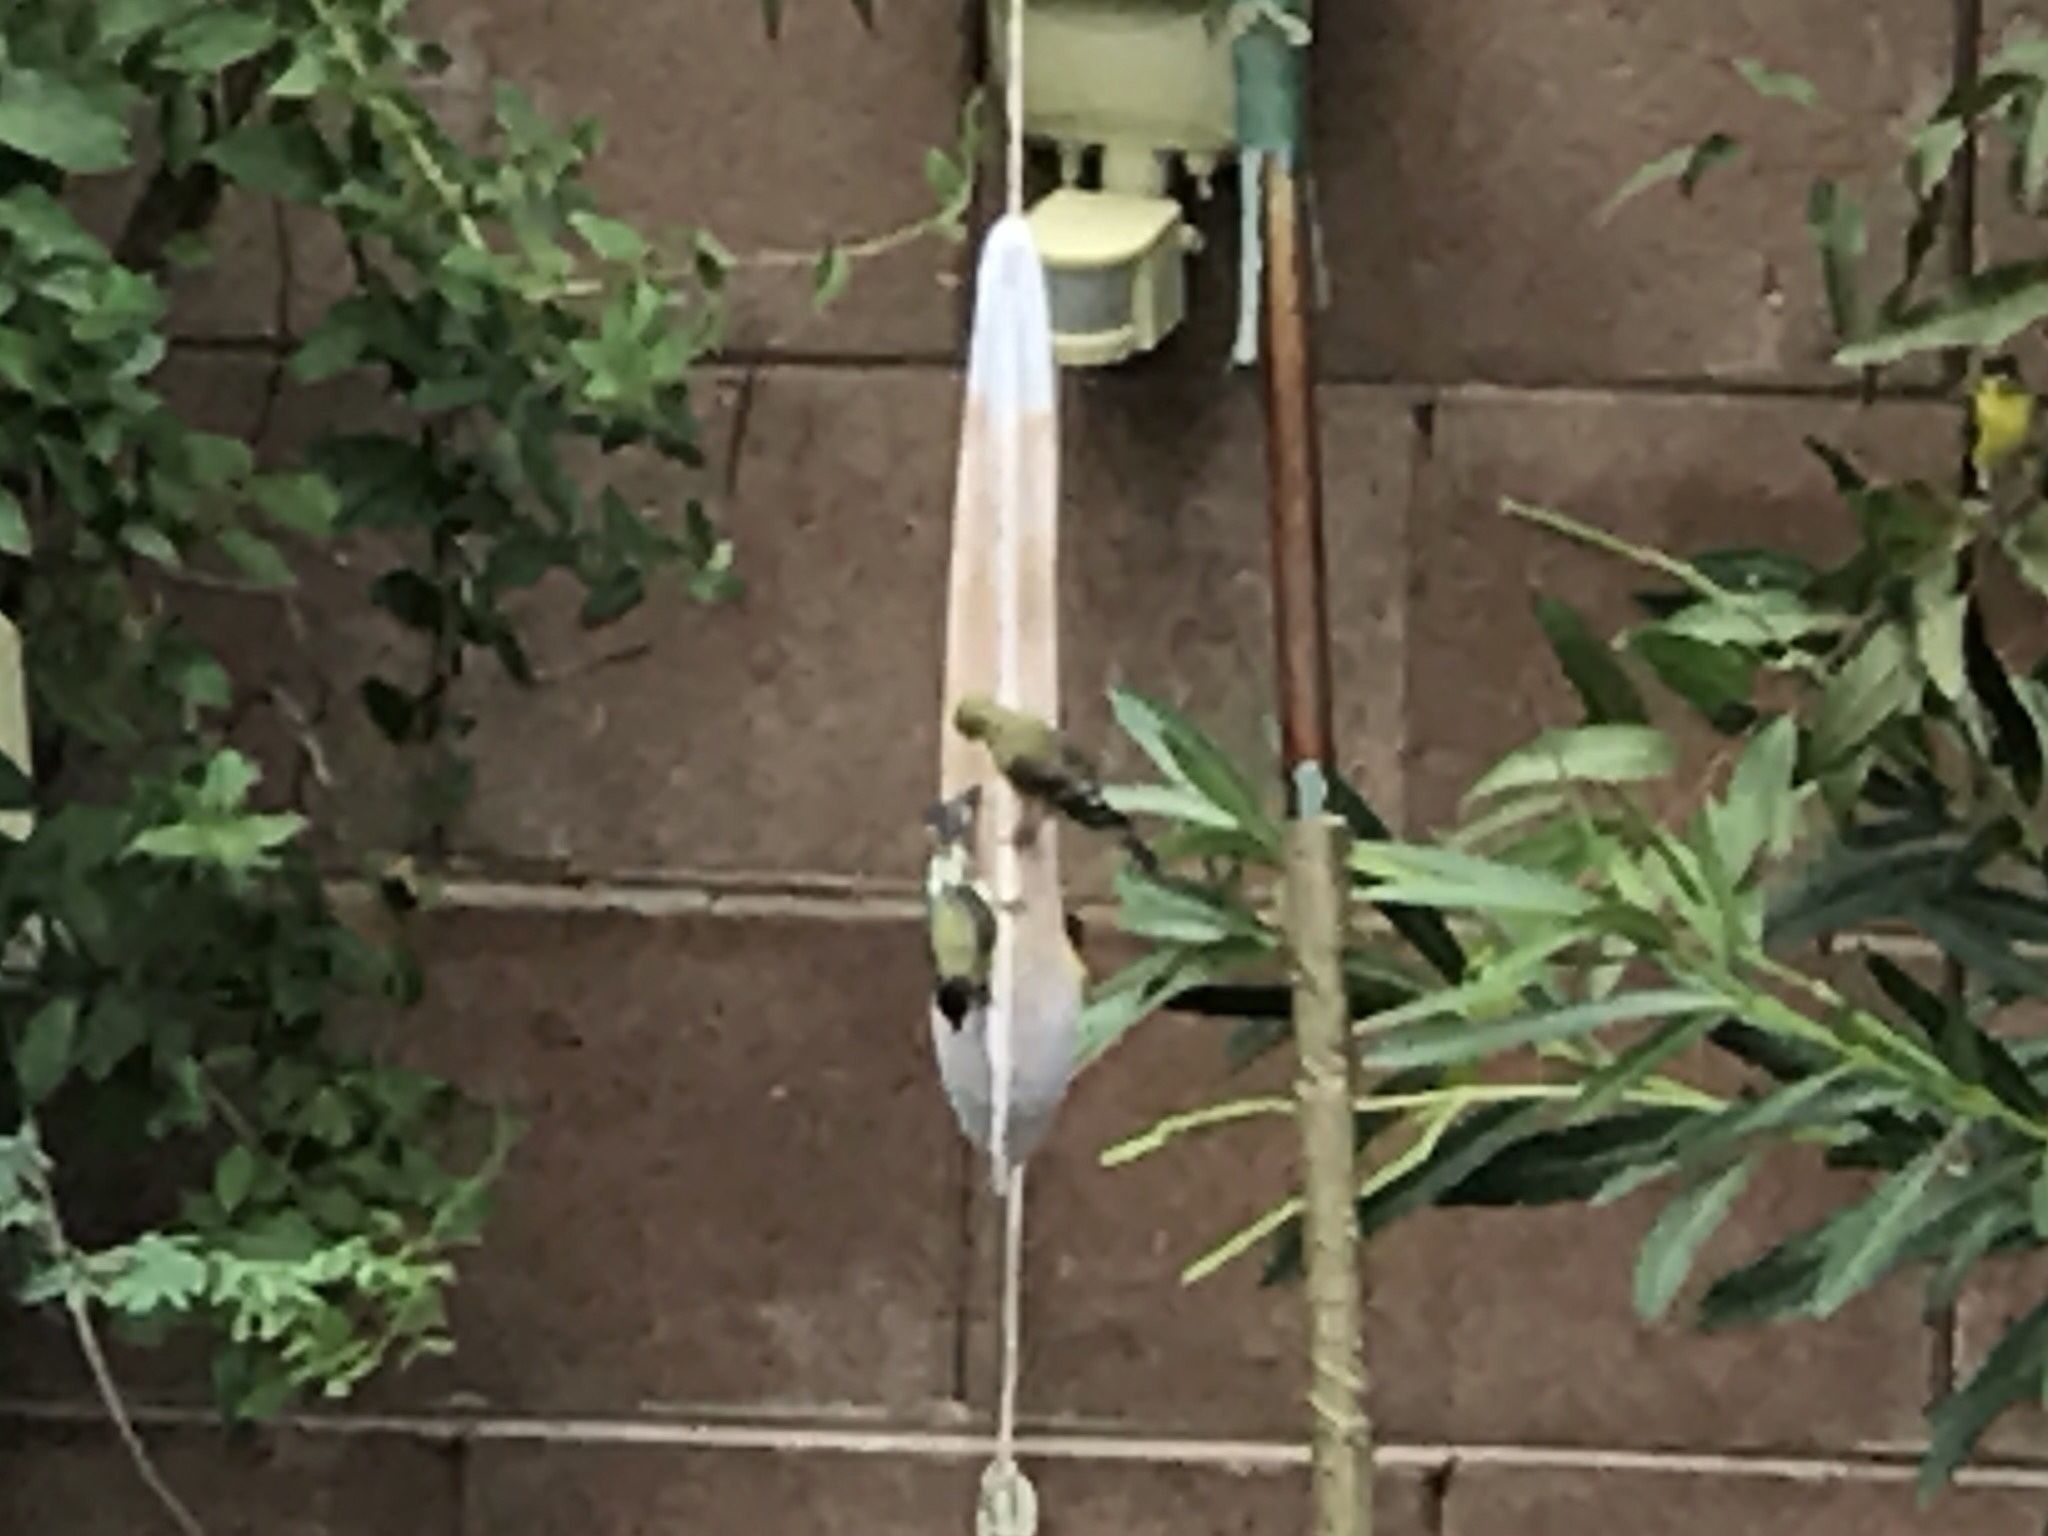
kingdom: Animalia
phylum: Chordata
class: Aves
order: Passeriformes
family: Fringillidae
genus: Spinus
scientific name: Spinus psaltria
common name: Lesser goldfinch
